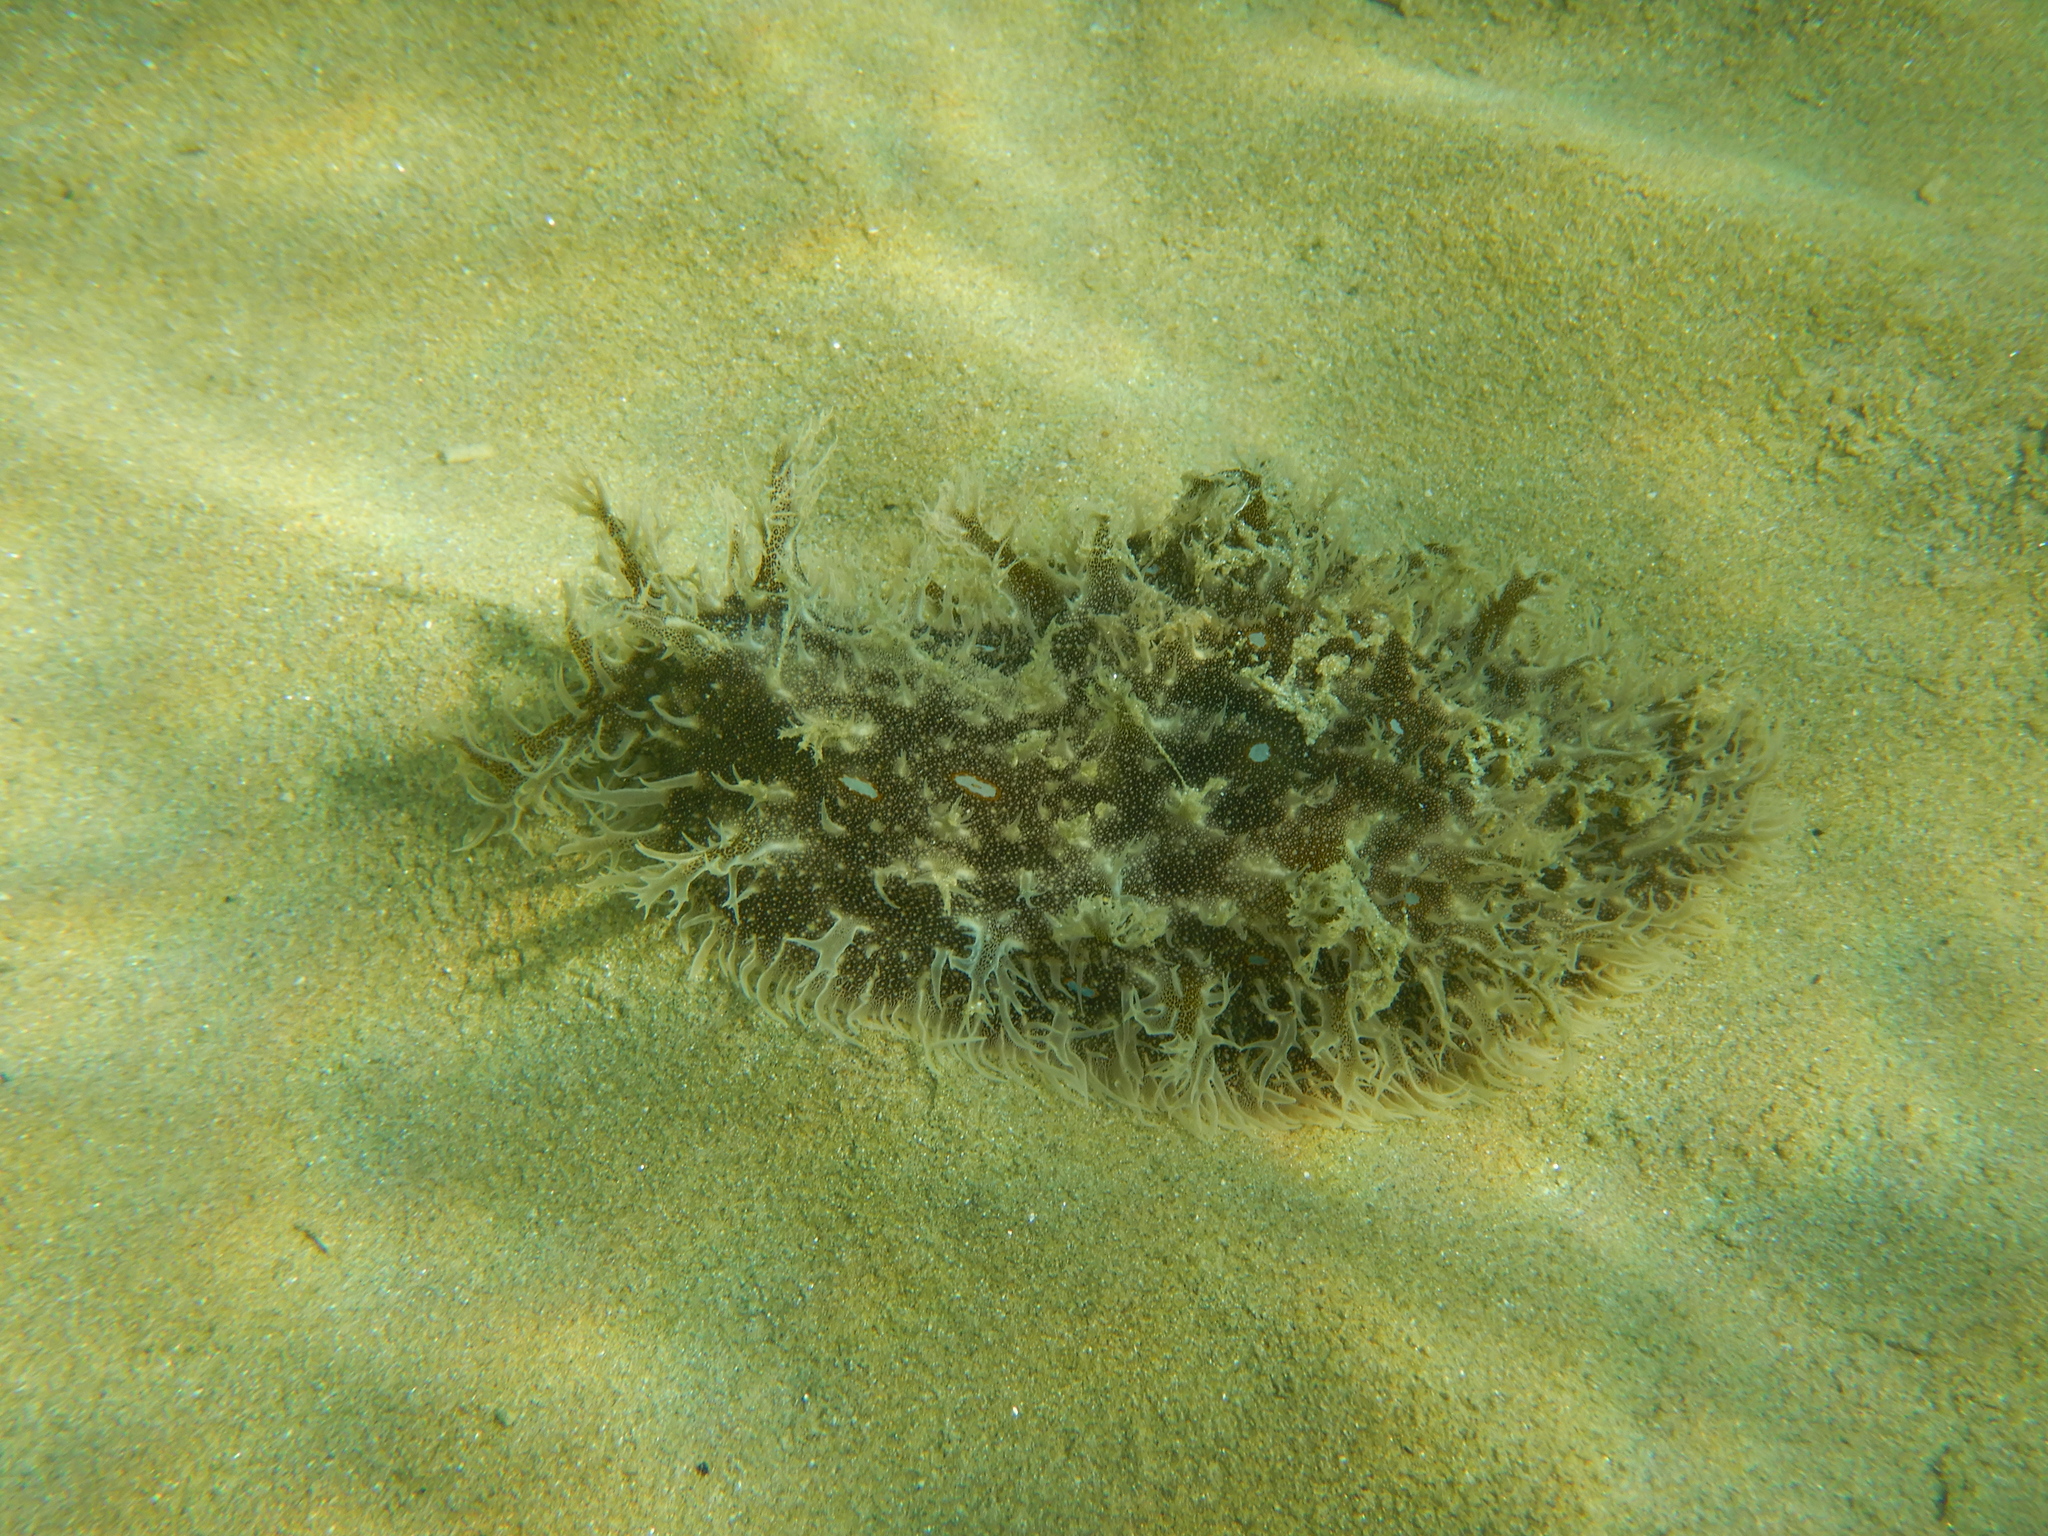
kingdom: Animalia
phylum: Mollusca
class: Gastropoda
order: Aplysiida
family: Aplysiidae
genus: Bursatella
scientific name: Bursatella leachii
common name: Shaggy sea hare
